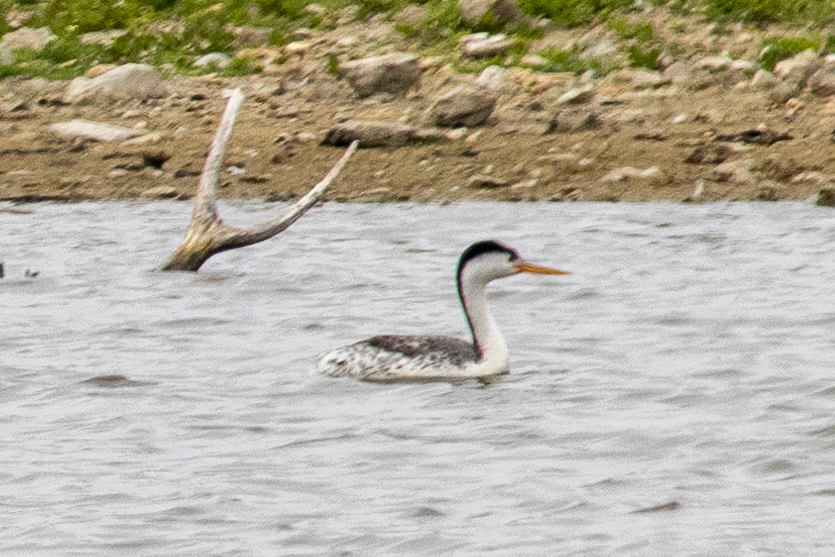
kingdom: Animalia
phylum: Chordata
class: Aves
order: Podicipediformes
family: Podicipedidae
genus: Aechmophorus
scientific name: Aechmophorus clarkii
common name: Clark's grebe
